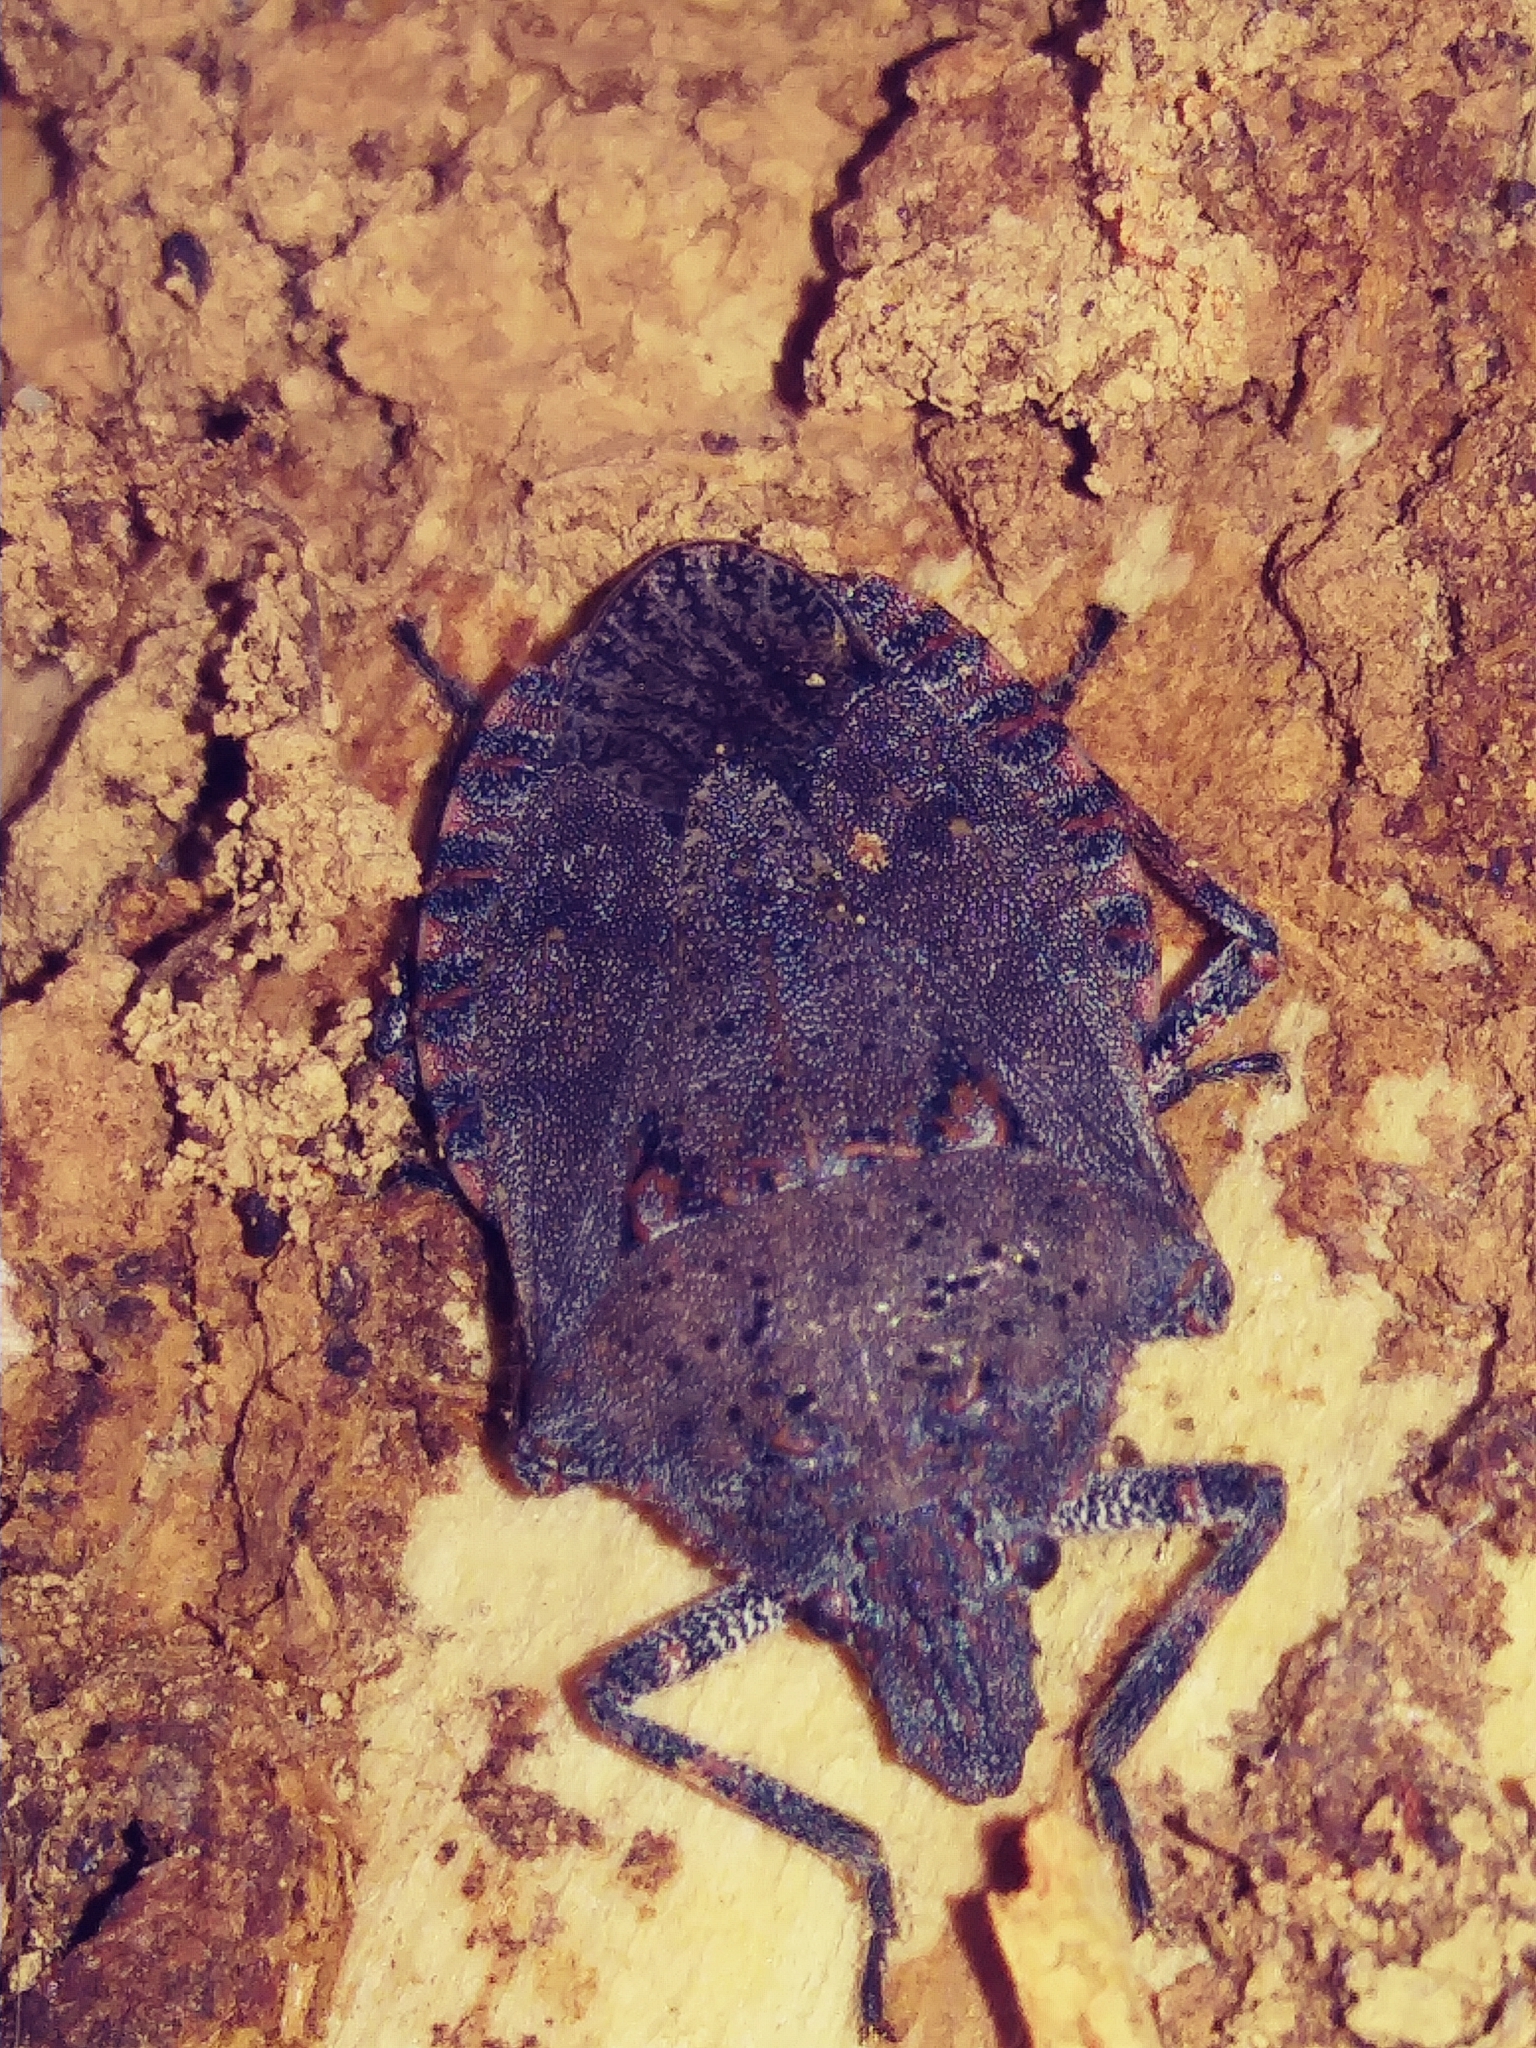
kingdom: Animalia
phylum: Arthropoda
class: Insecta
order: Hemiptera
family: Pentatomidae
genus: Brochymena
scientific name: Brochymena quadripustulata
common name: Four-humped stink bug
